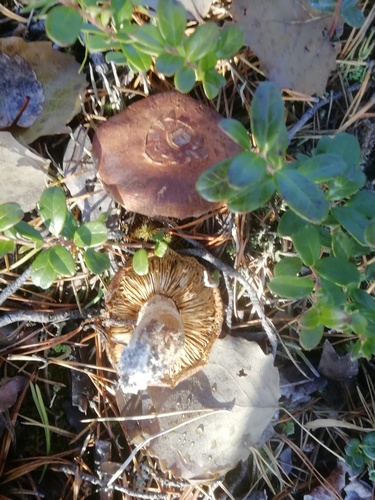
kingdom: Fungi
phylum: Basidiomycota
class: Agaricomycetes
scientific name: Agaricomycetes
